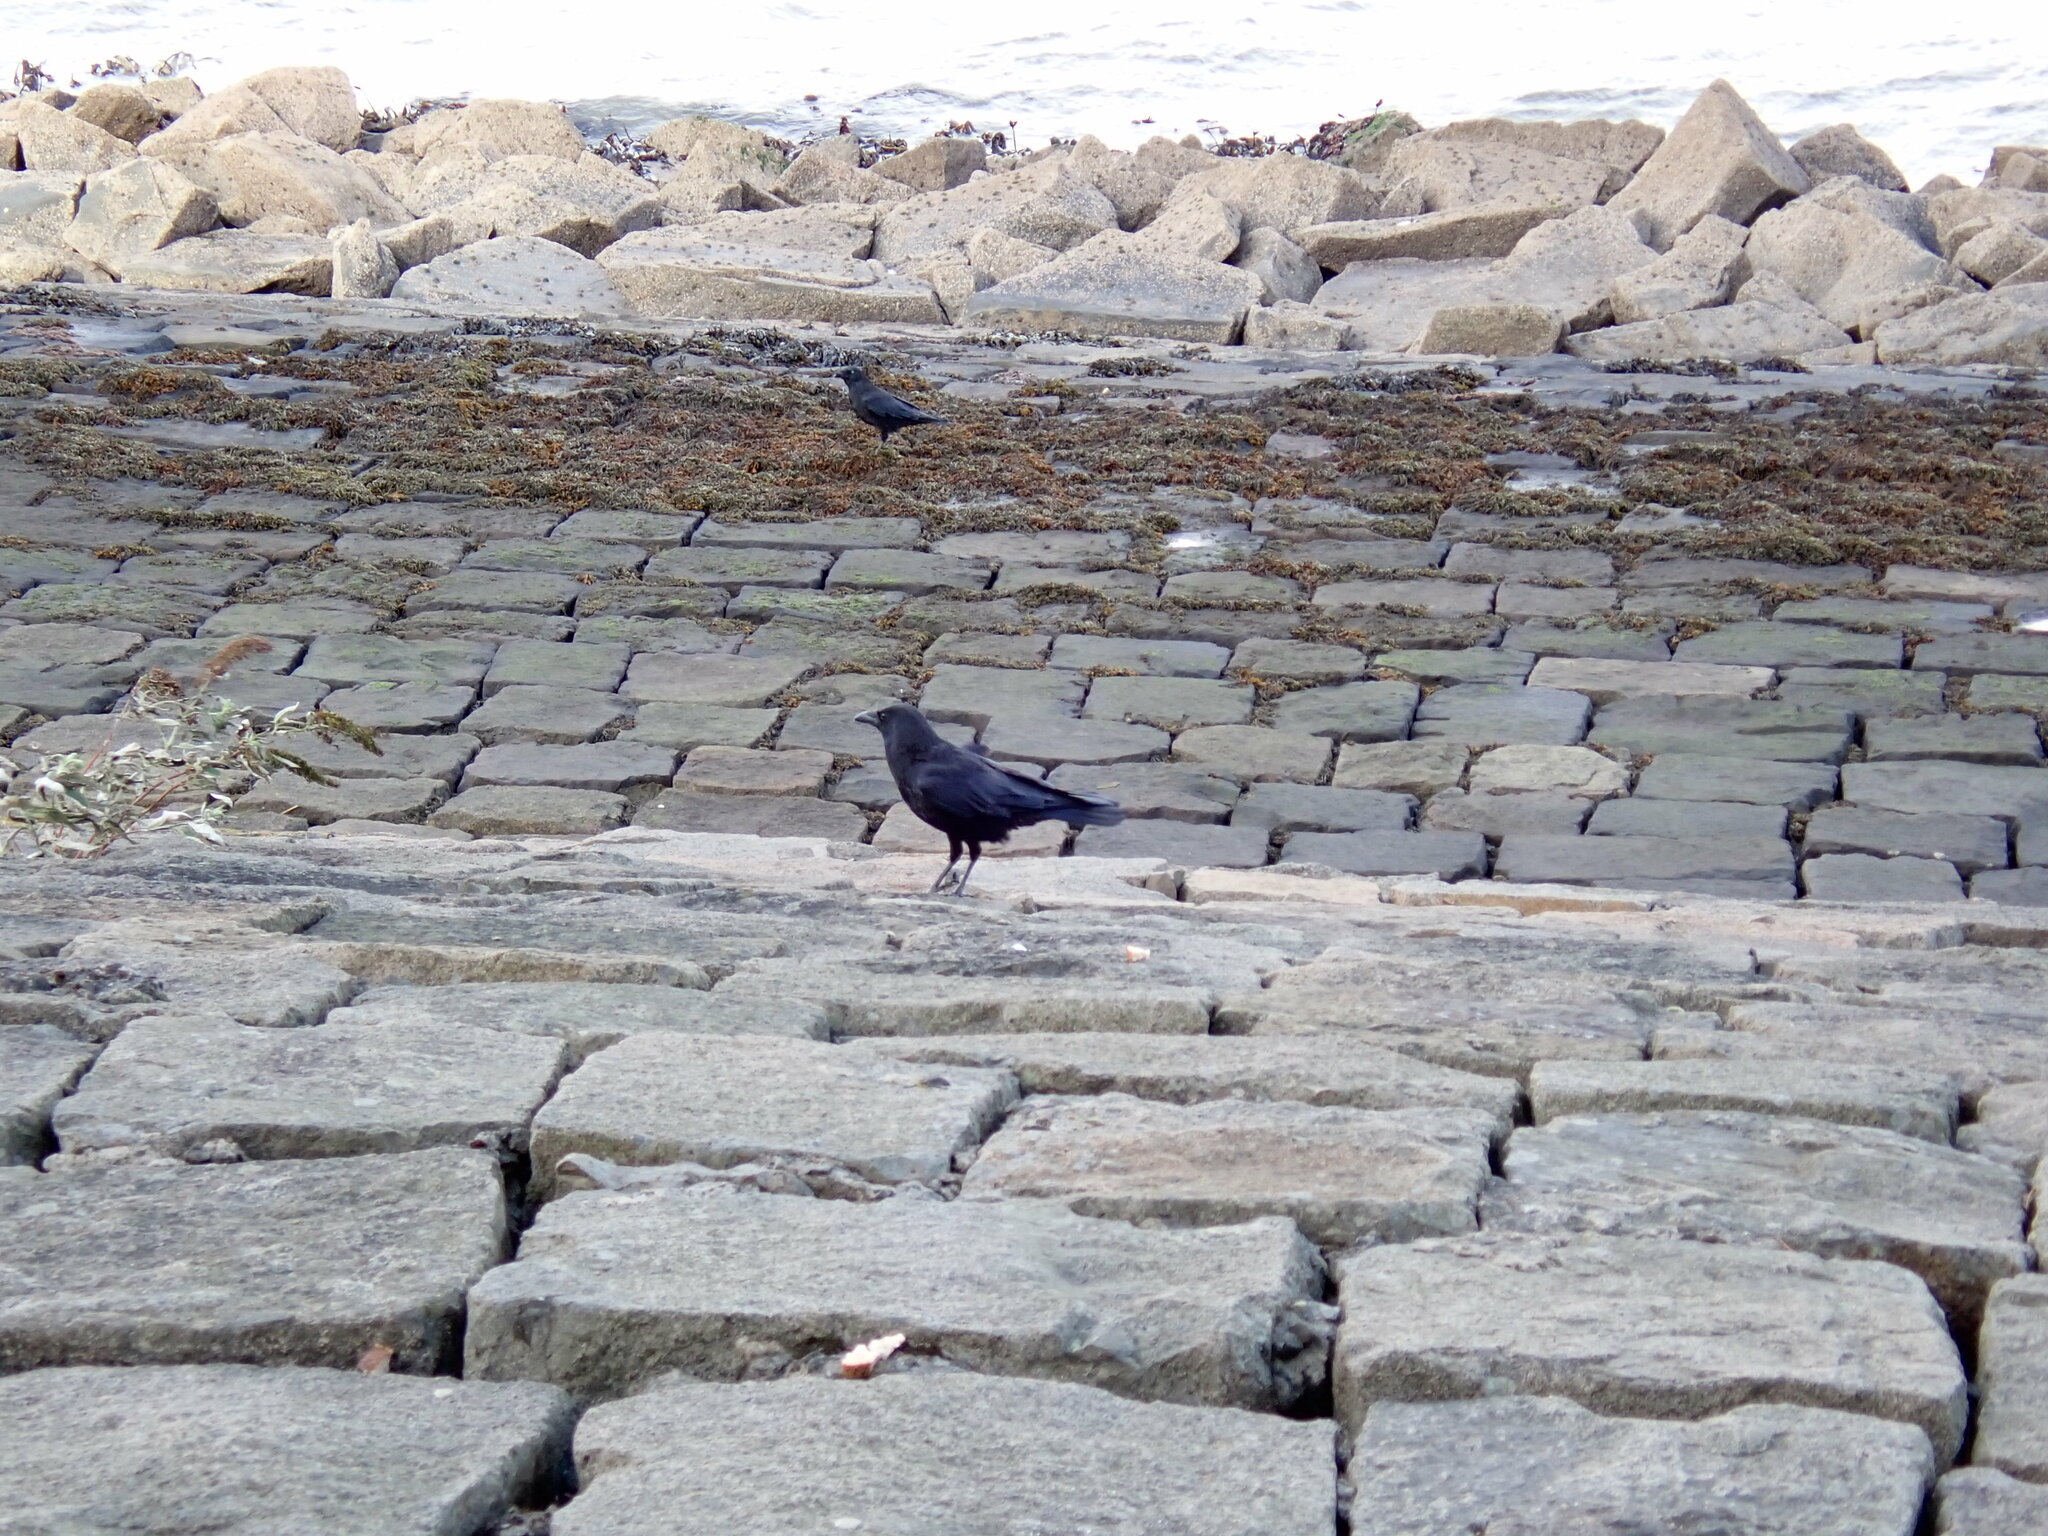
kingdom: Animalia
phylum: Chordata
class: Aves
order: Passeriformes
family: Corvidae
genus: Corvus
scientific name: Corvus corone
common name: Carrion crow
